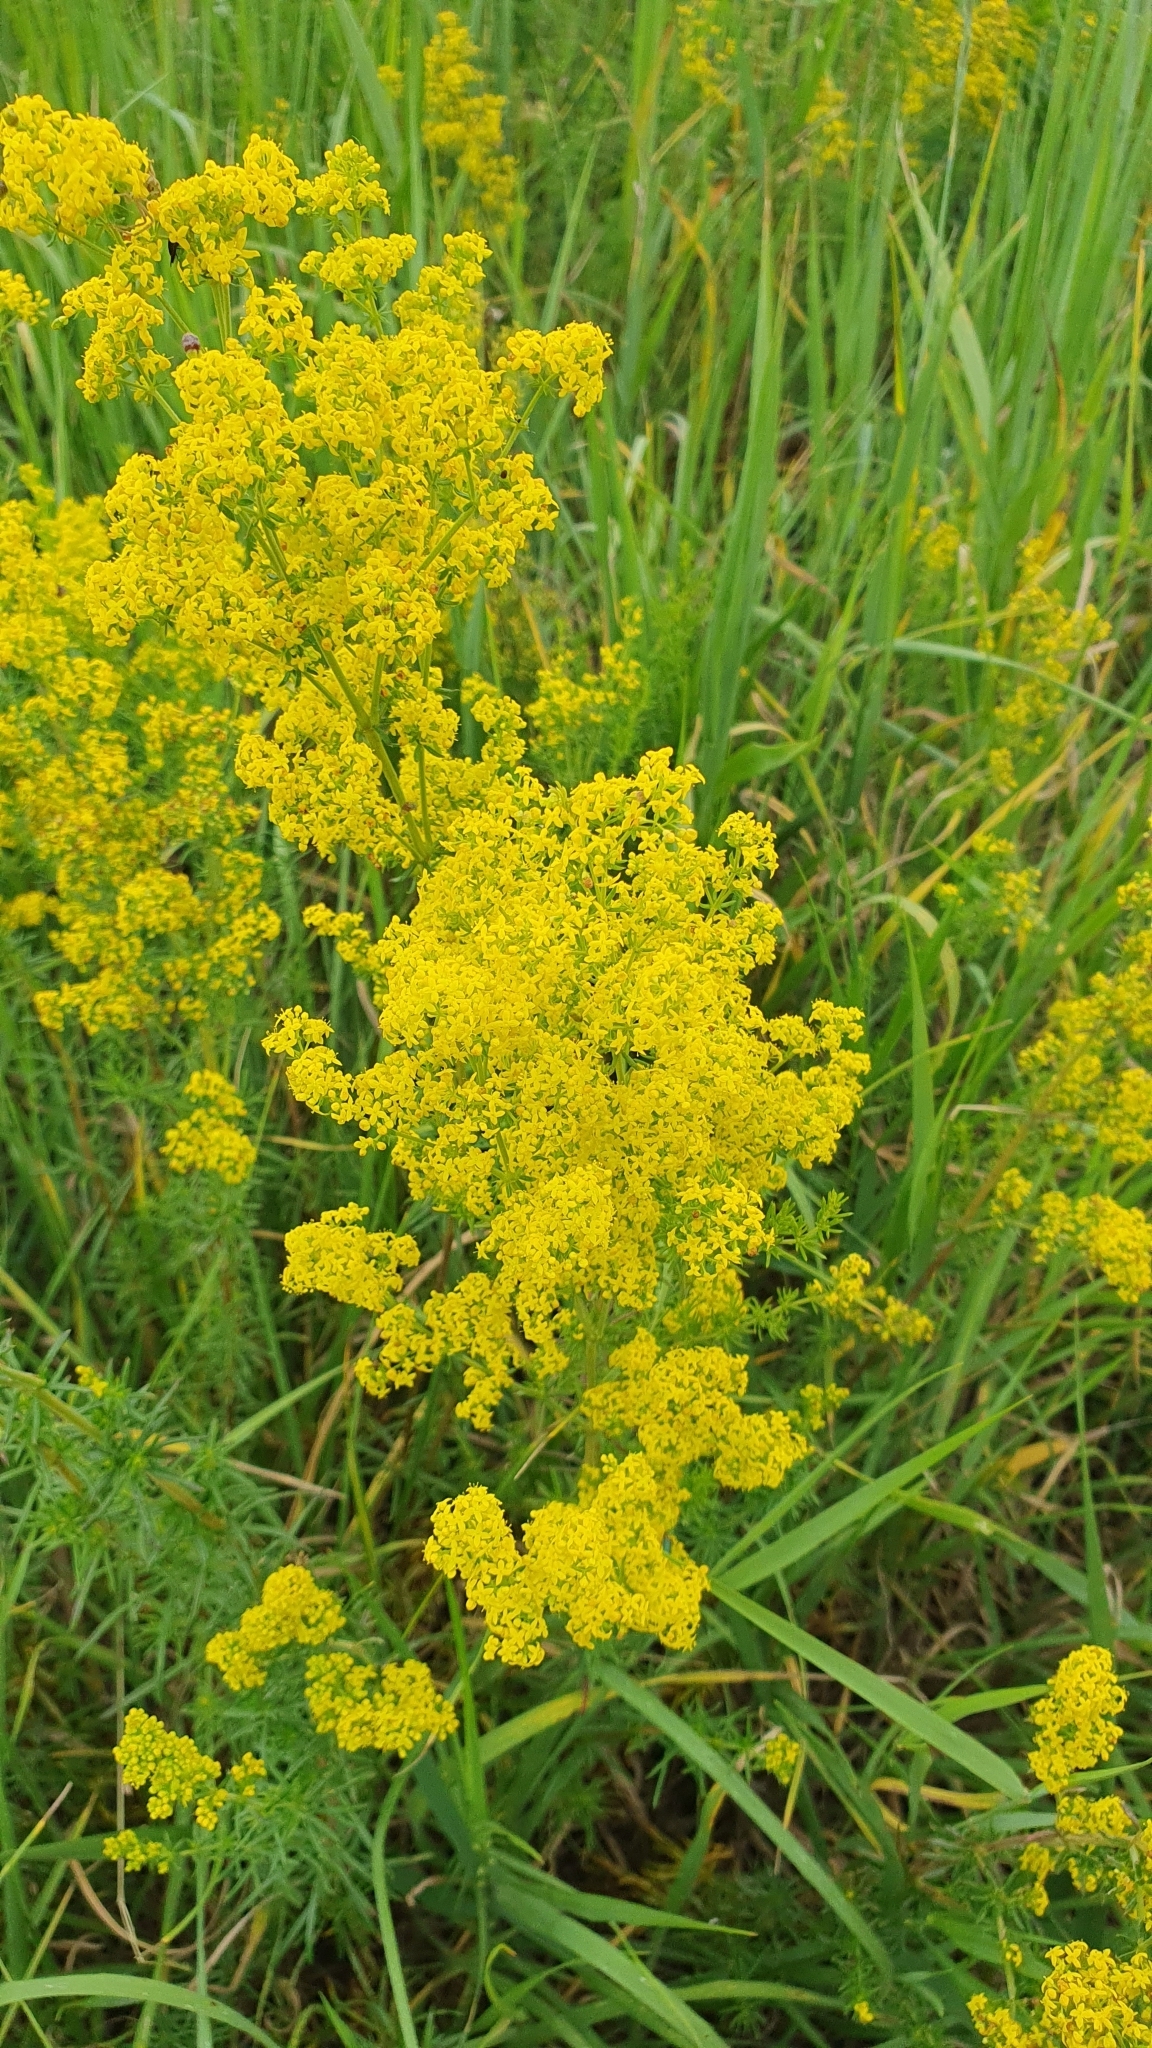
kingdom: Plantae
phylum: Tracheophyta
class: Magnoliopsida
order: Gentianales
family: Rubiaceae
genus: Galium
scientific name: Galium verum
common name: Lady's bedstraw
